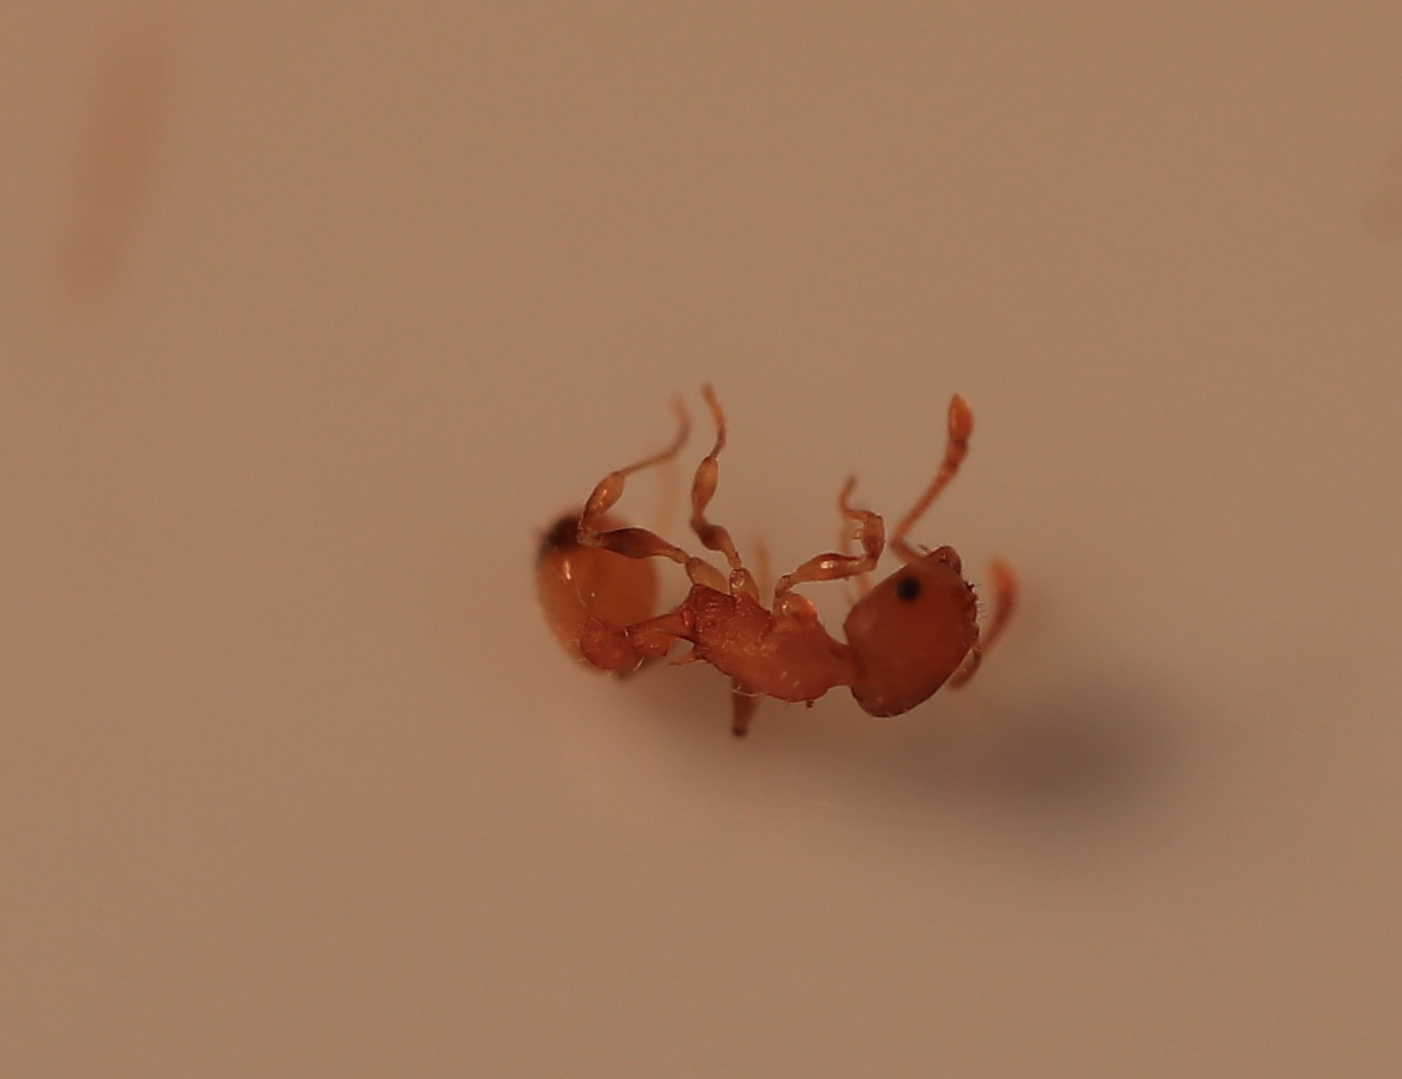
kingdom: Animalia
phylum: Arthropoda
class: Insecta
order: Hymenoptera
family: Formicidae
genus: Temnothorax
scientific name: Temnothorax curvispinosus
